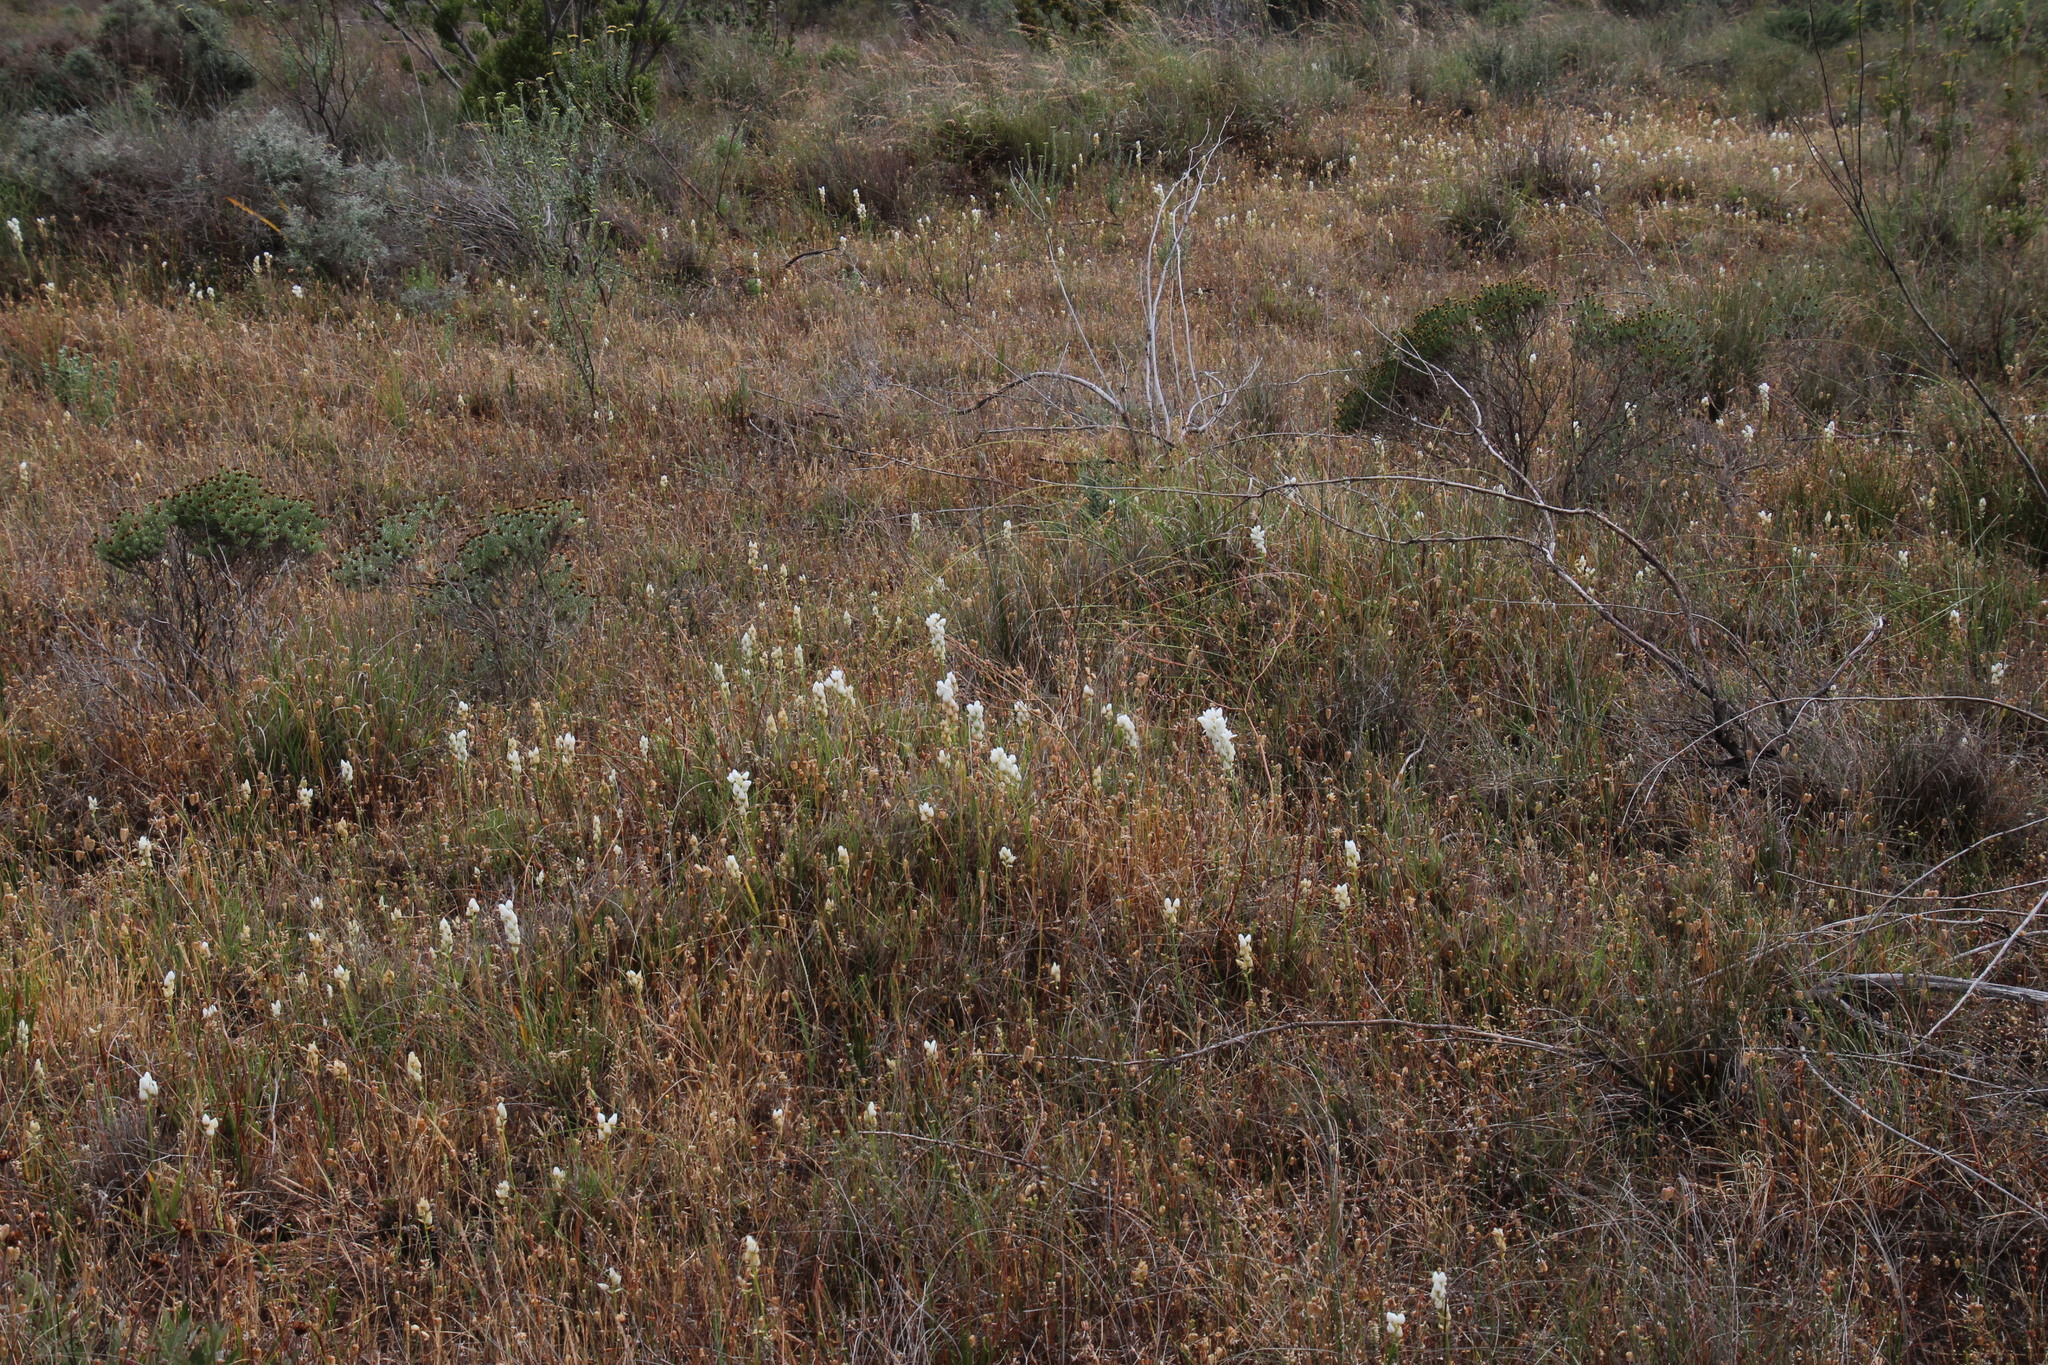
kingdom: Plantae
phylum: Tracheophyta
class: Liliopsida
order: Asparagales
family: Asparagaceae
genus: Ornithogalum
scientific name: Ornithogalum dubium
